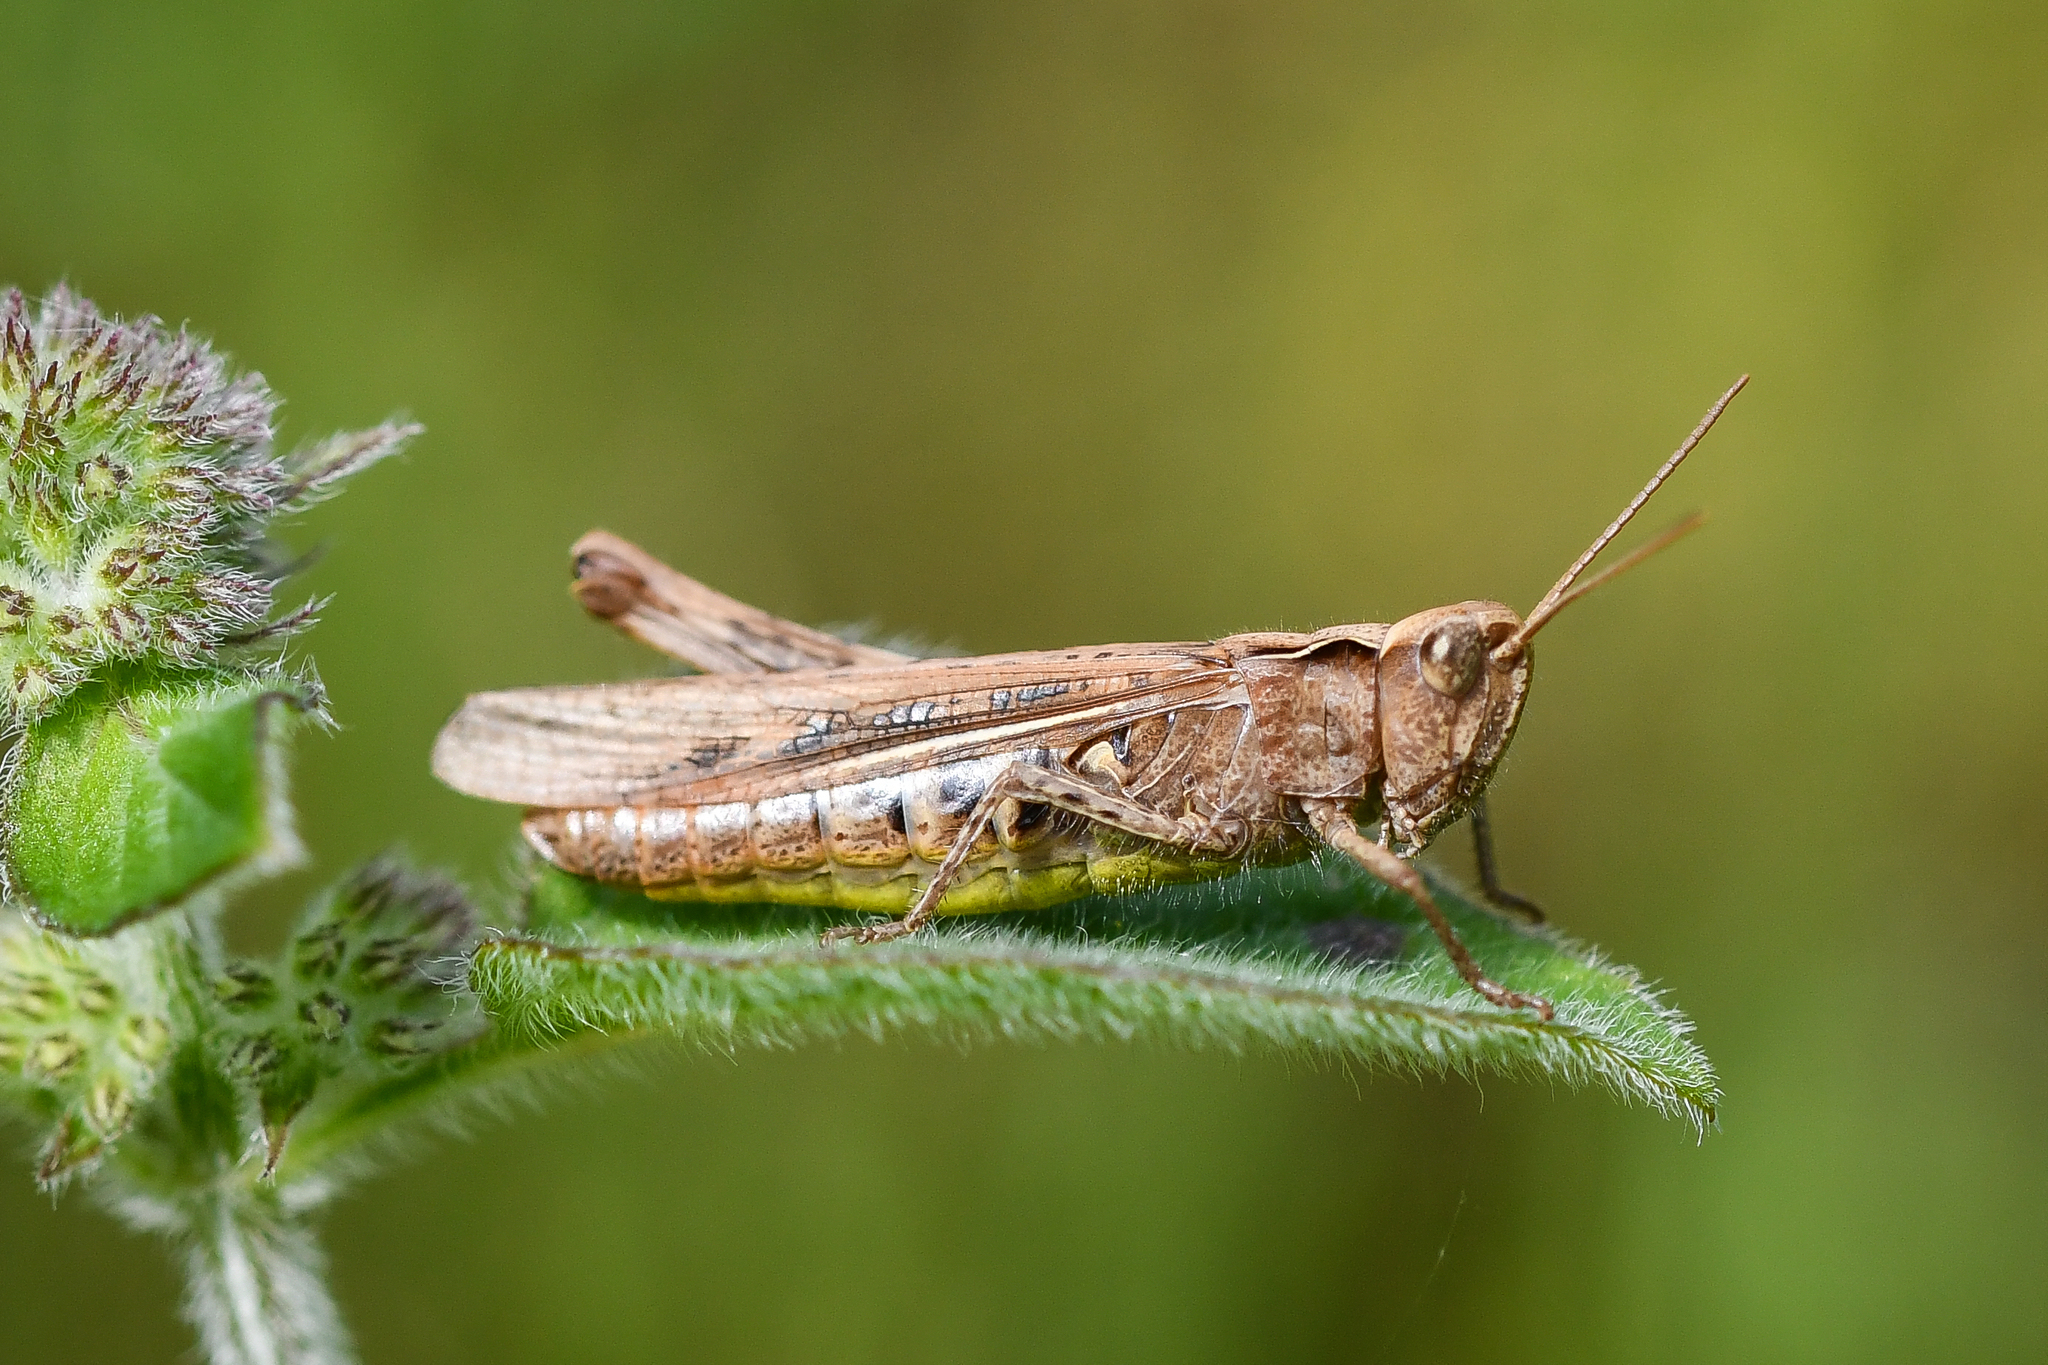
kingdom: Animalia
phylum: Arthropoda
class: Insecta
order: Orthoptera
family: Acrididae
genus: Chorthippus
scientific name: Chorthippus brunneus
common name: Field grasshopper
